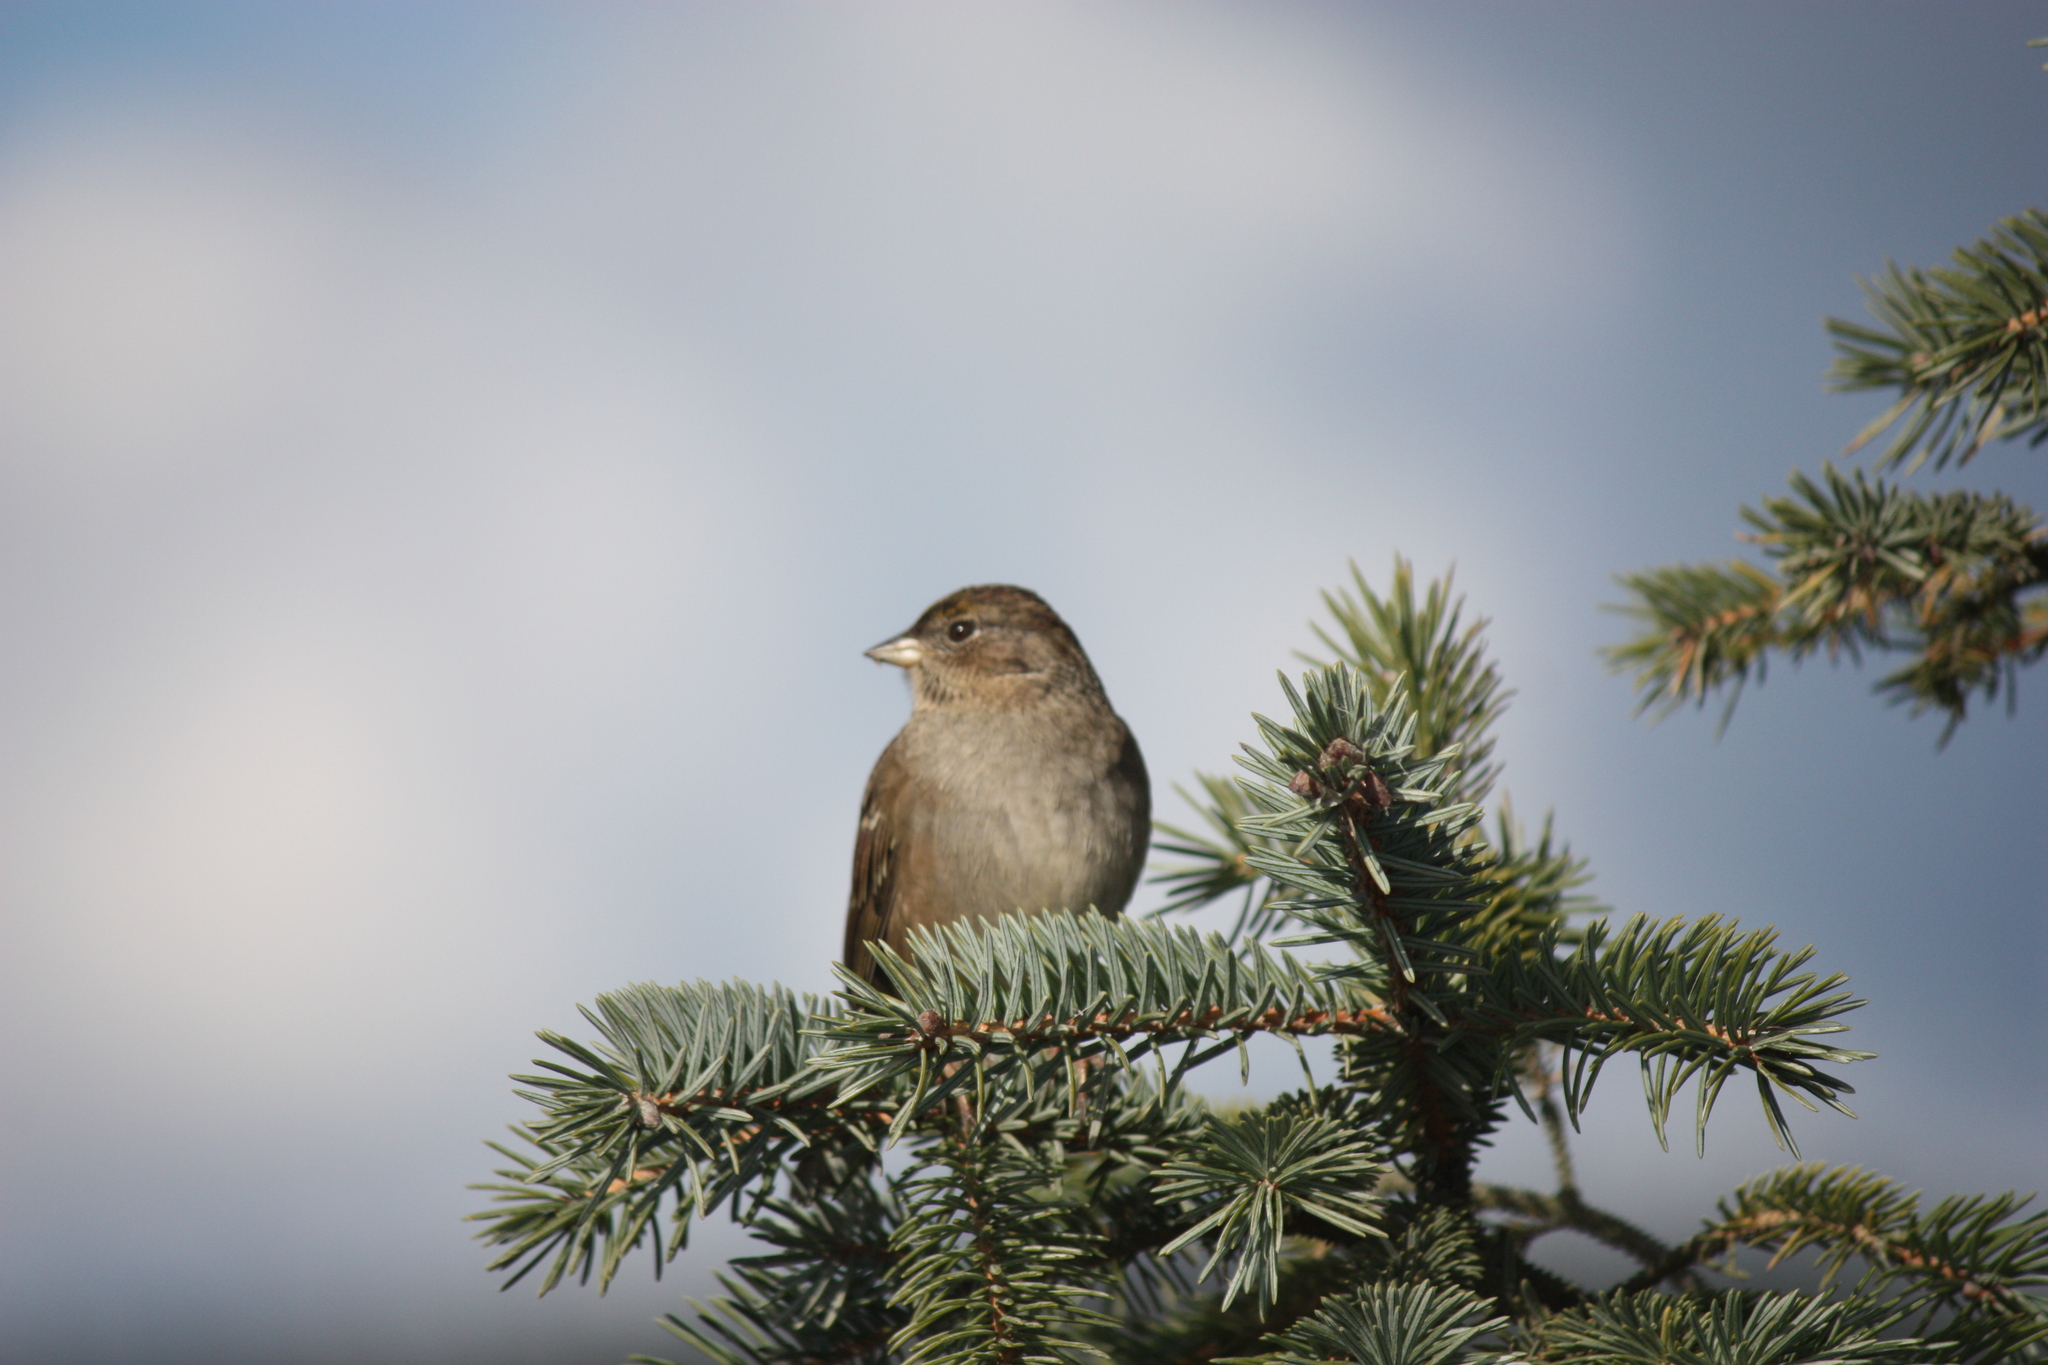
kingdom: Animalia
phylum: Chordata
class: Aves
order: Passeriformes
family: Passerellidae
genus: Zonotrichia
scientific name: Zonotrichia atricapilla
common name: Golden-crowned sparrow
